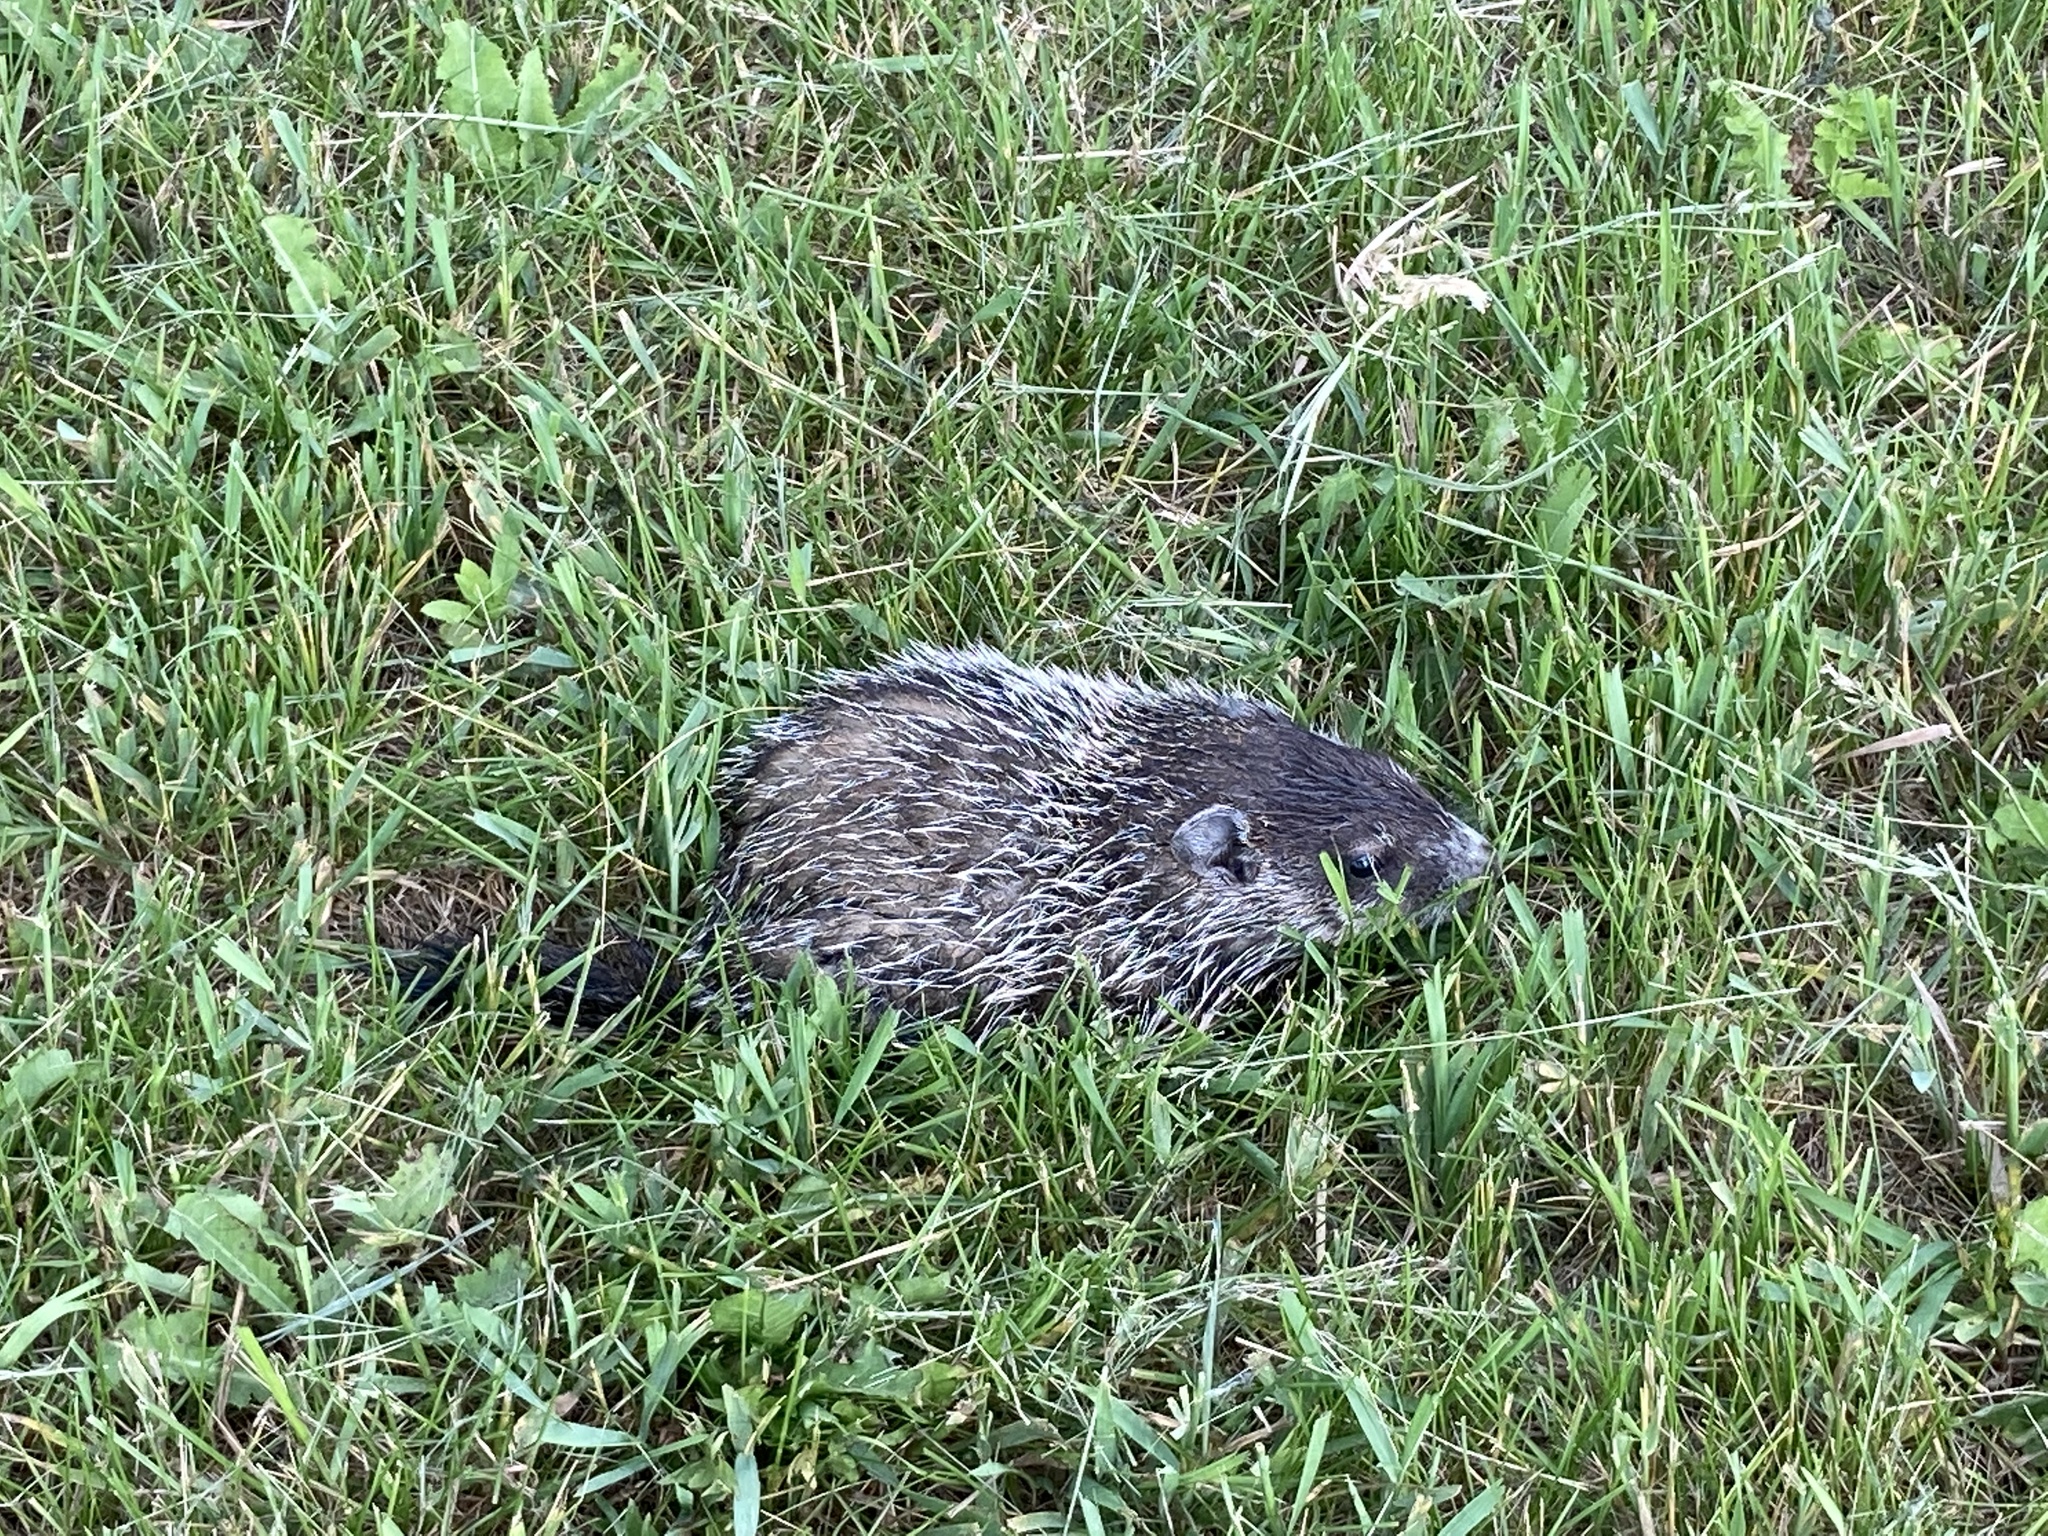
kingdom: Animalia
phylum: Chordata
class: Mammalia
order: Rodentia
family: Sciuridae
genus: Marmota
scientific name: Marmota monax
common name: Groundhog
